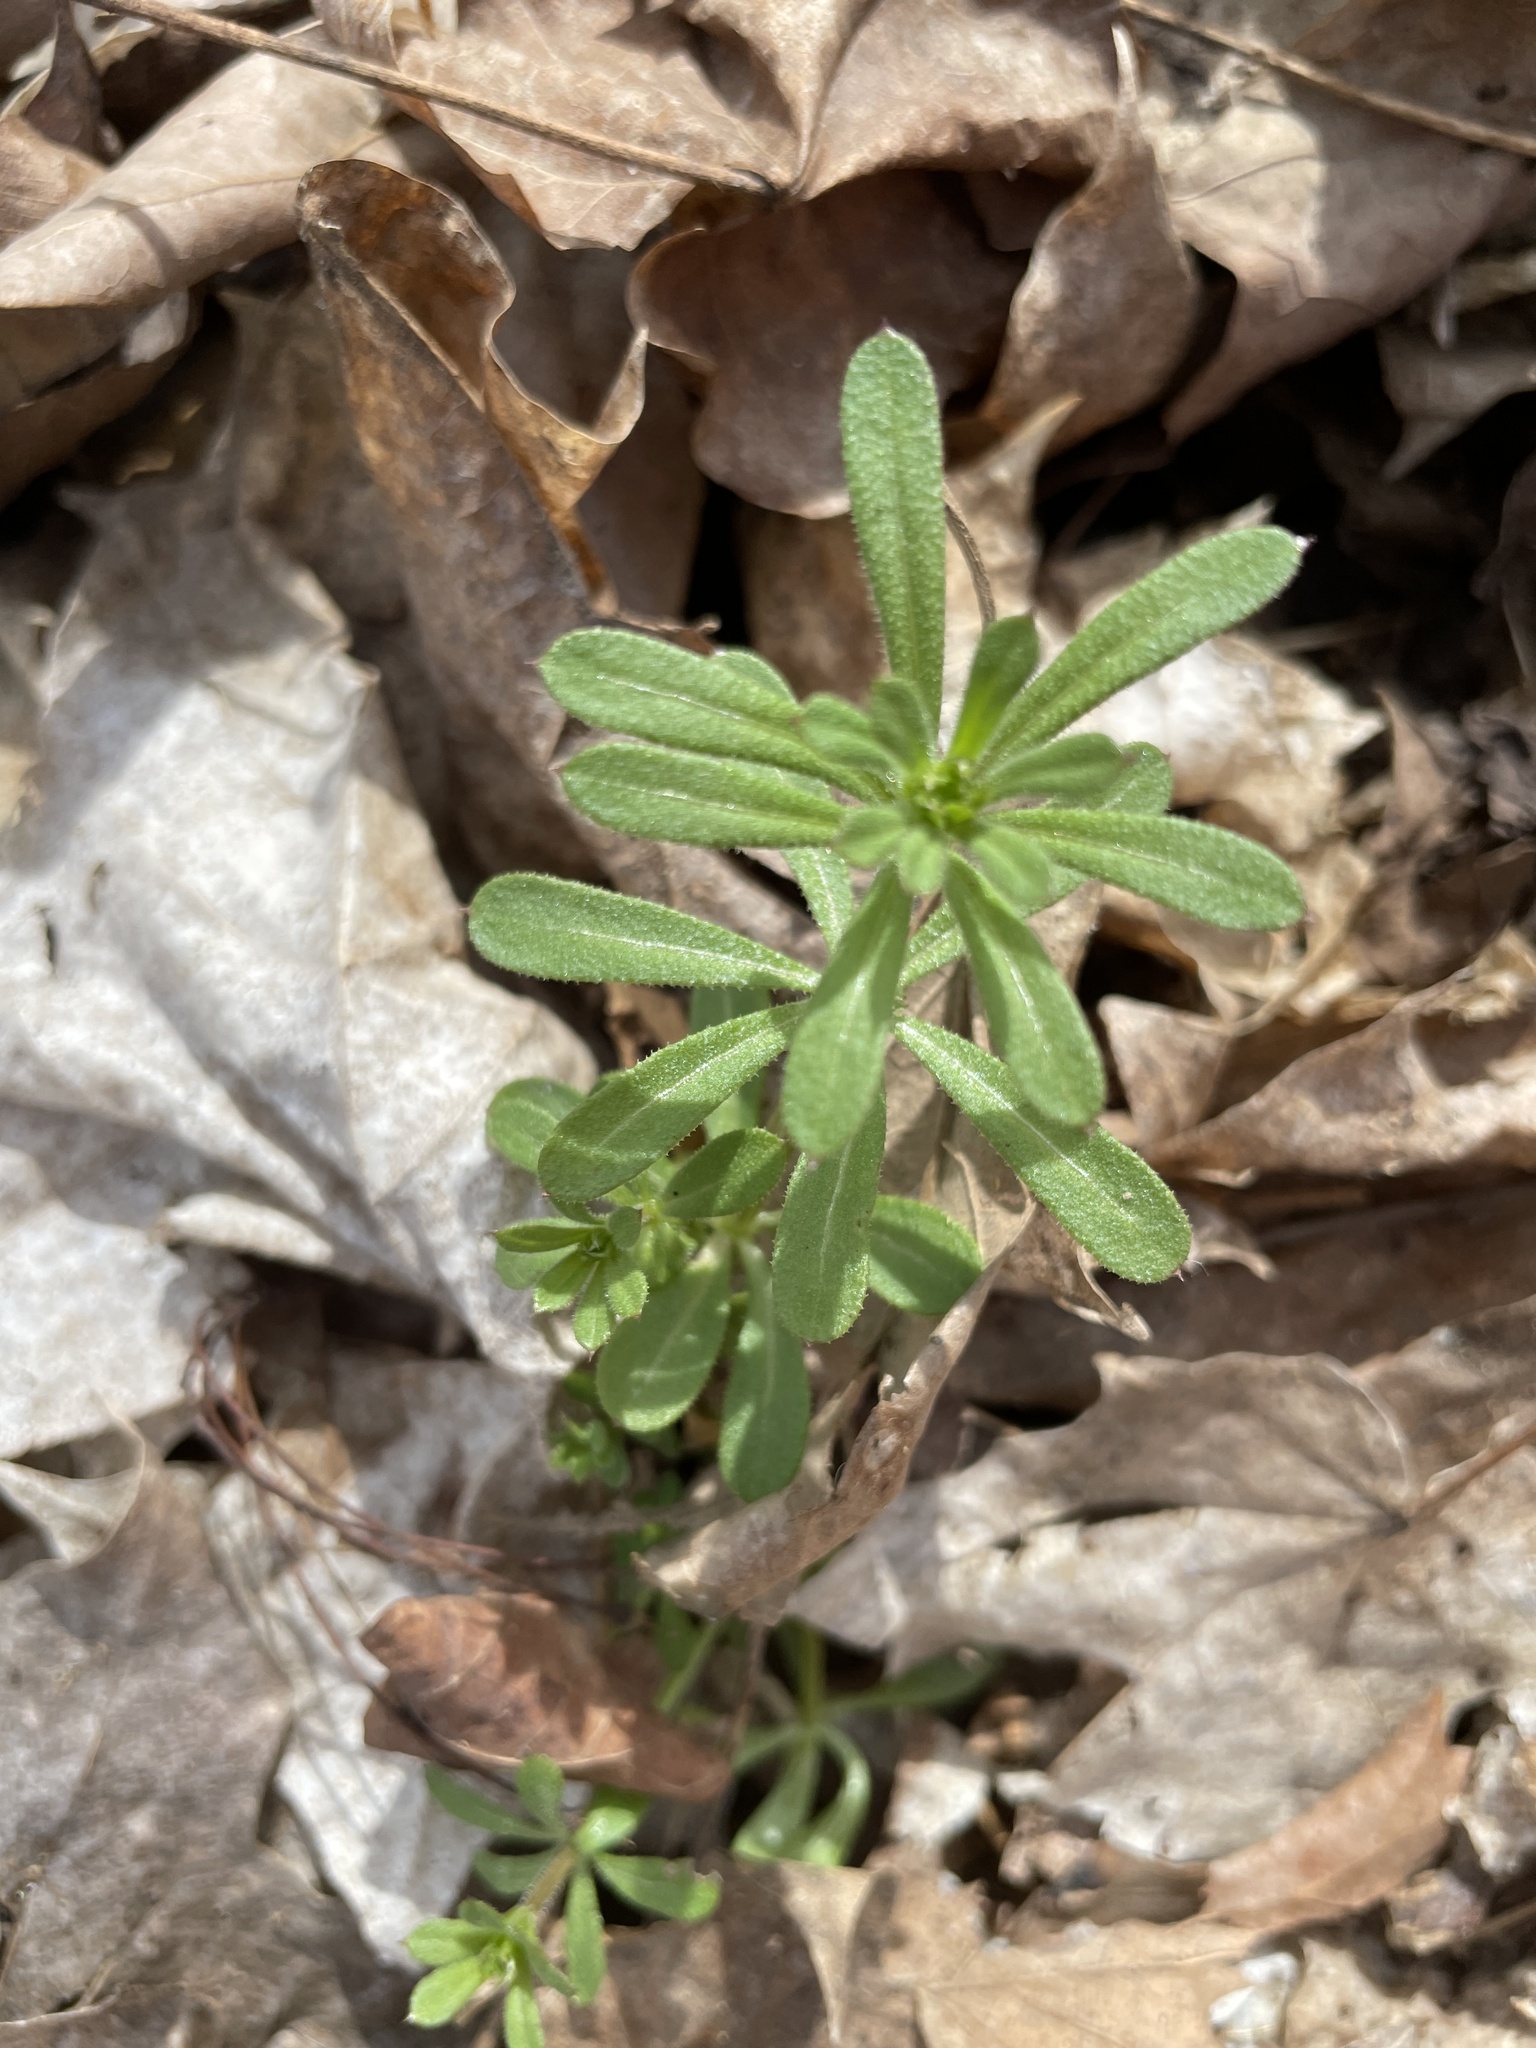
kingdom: Plantae
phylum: Tracheophyta
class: Magnoliopsida
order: Gentianales
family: Rubiaceae
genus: Galium
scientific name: Galium aparine
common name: Cleavers
